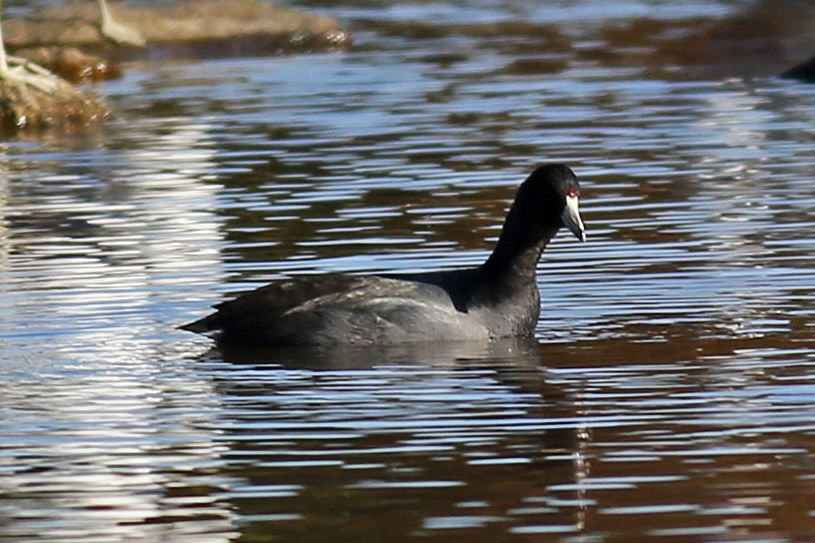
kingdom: Animalia
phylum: Chordata
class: Aves
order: Gruiformes
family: Rallidae
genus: Fulica
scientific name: Fulica americana
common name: American coot
